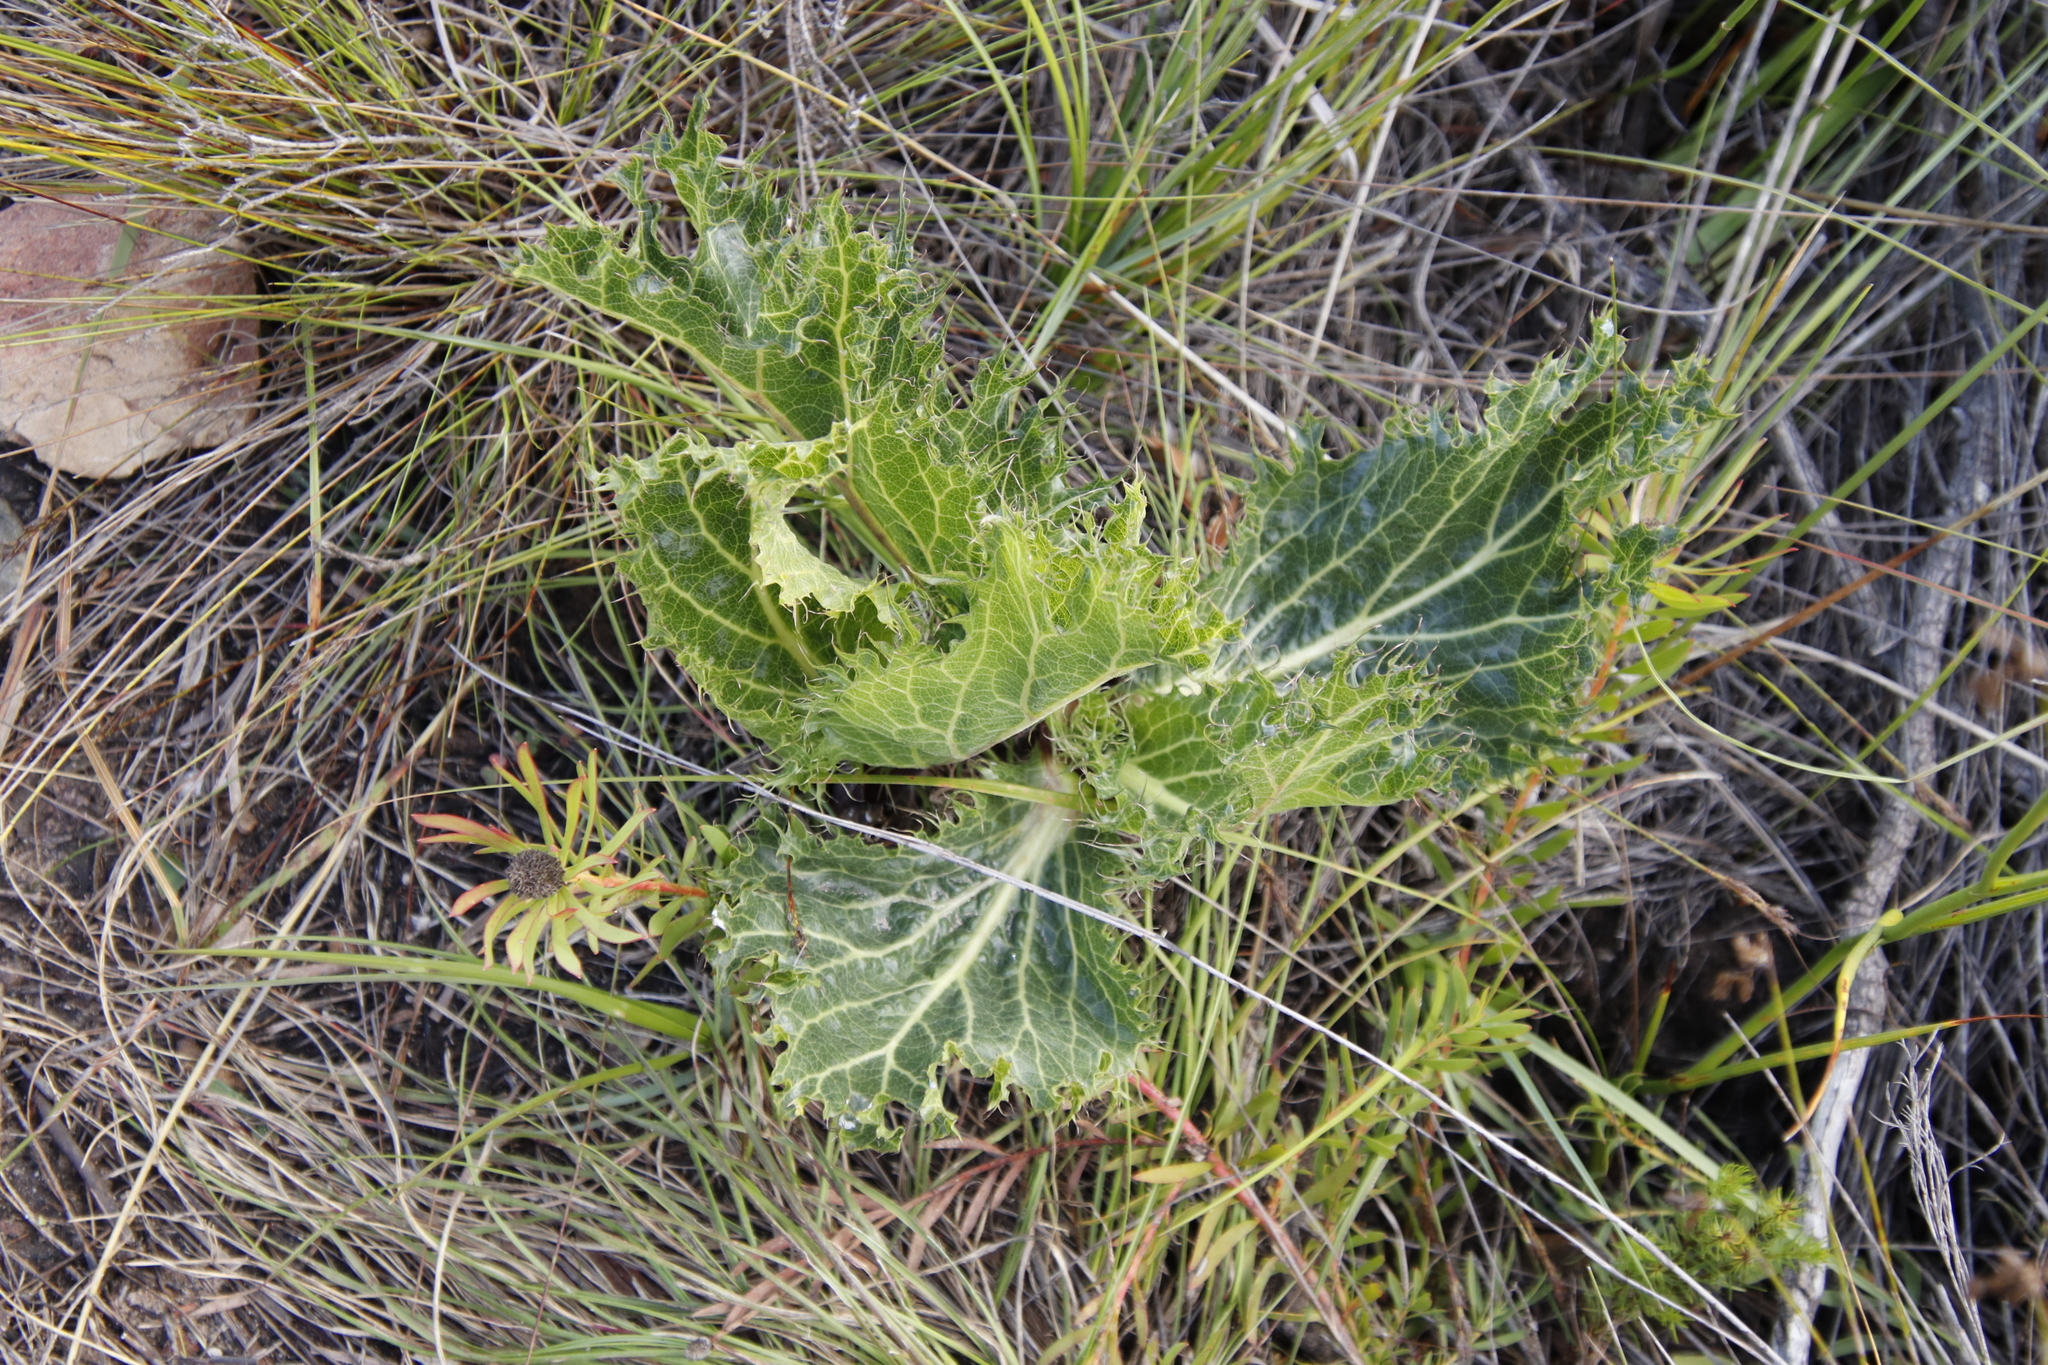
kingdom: Plantae
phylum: Tracheophyta
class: Magnoliopsida
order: Apiales
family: Apiaceae
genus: Lichtensteinia
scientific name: Lichtensteinia lacera
